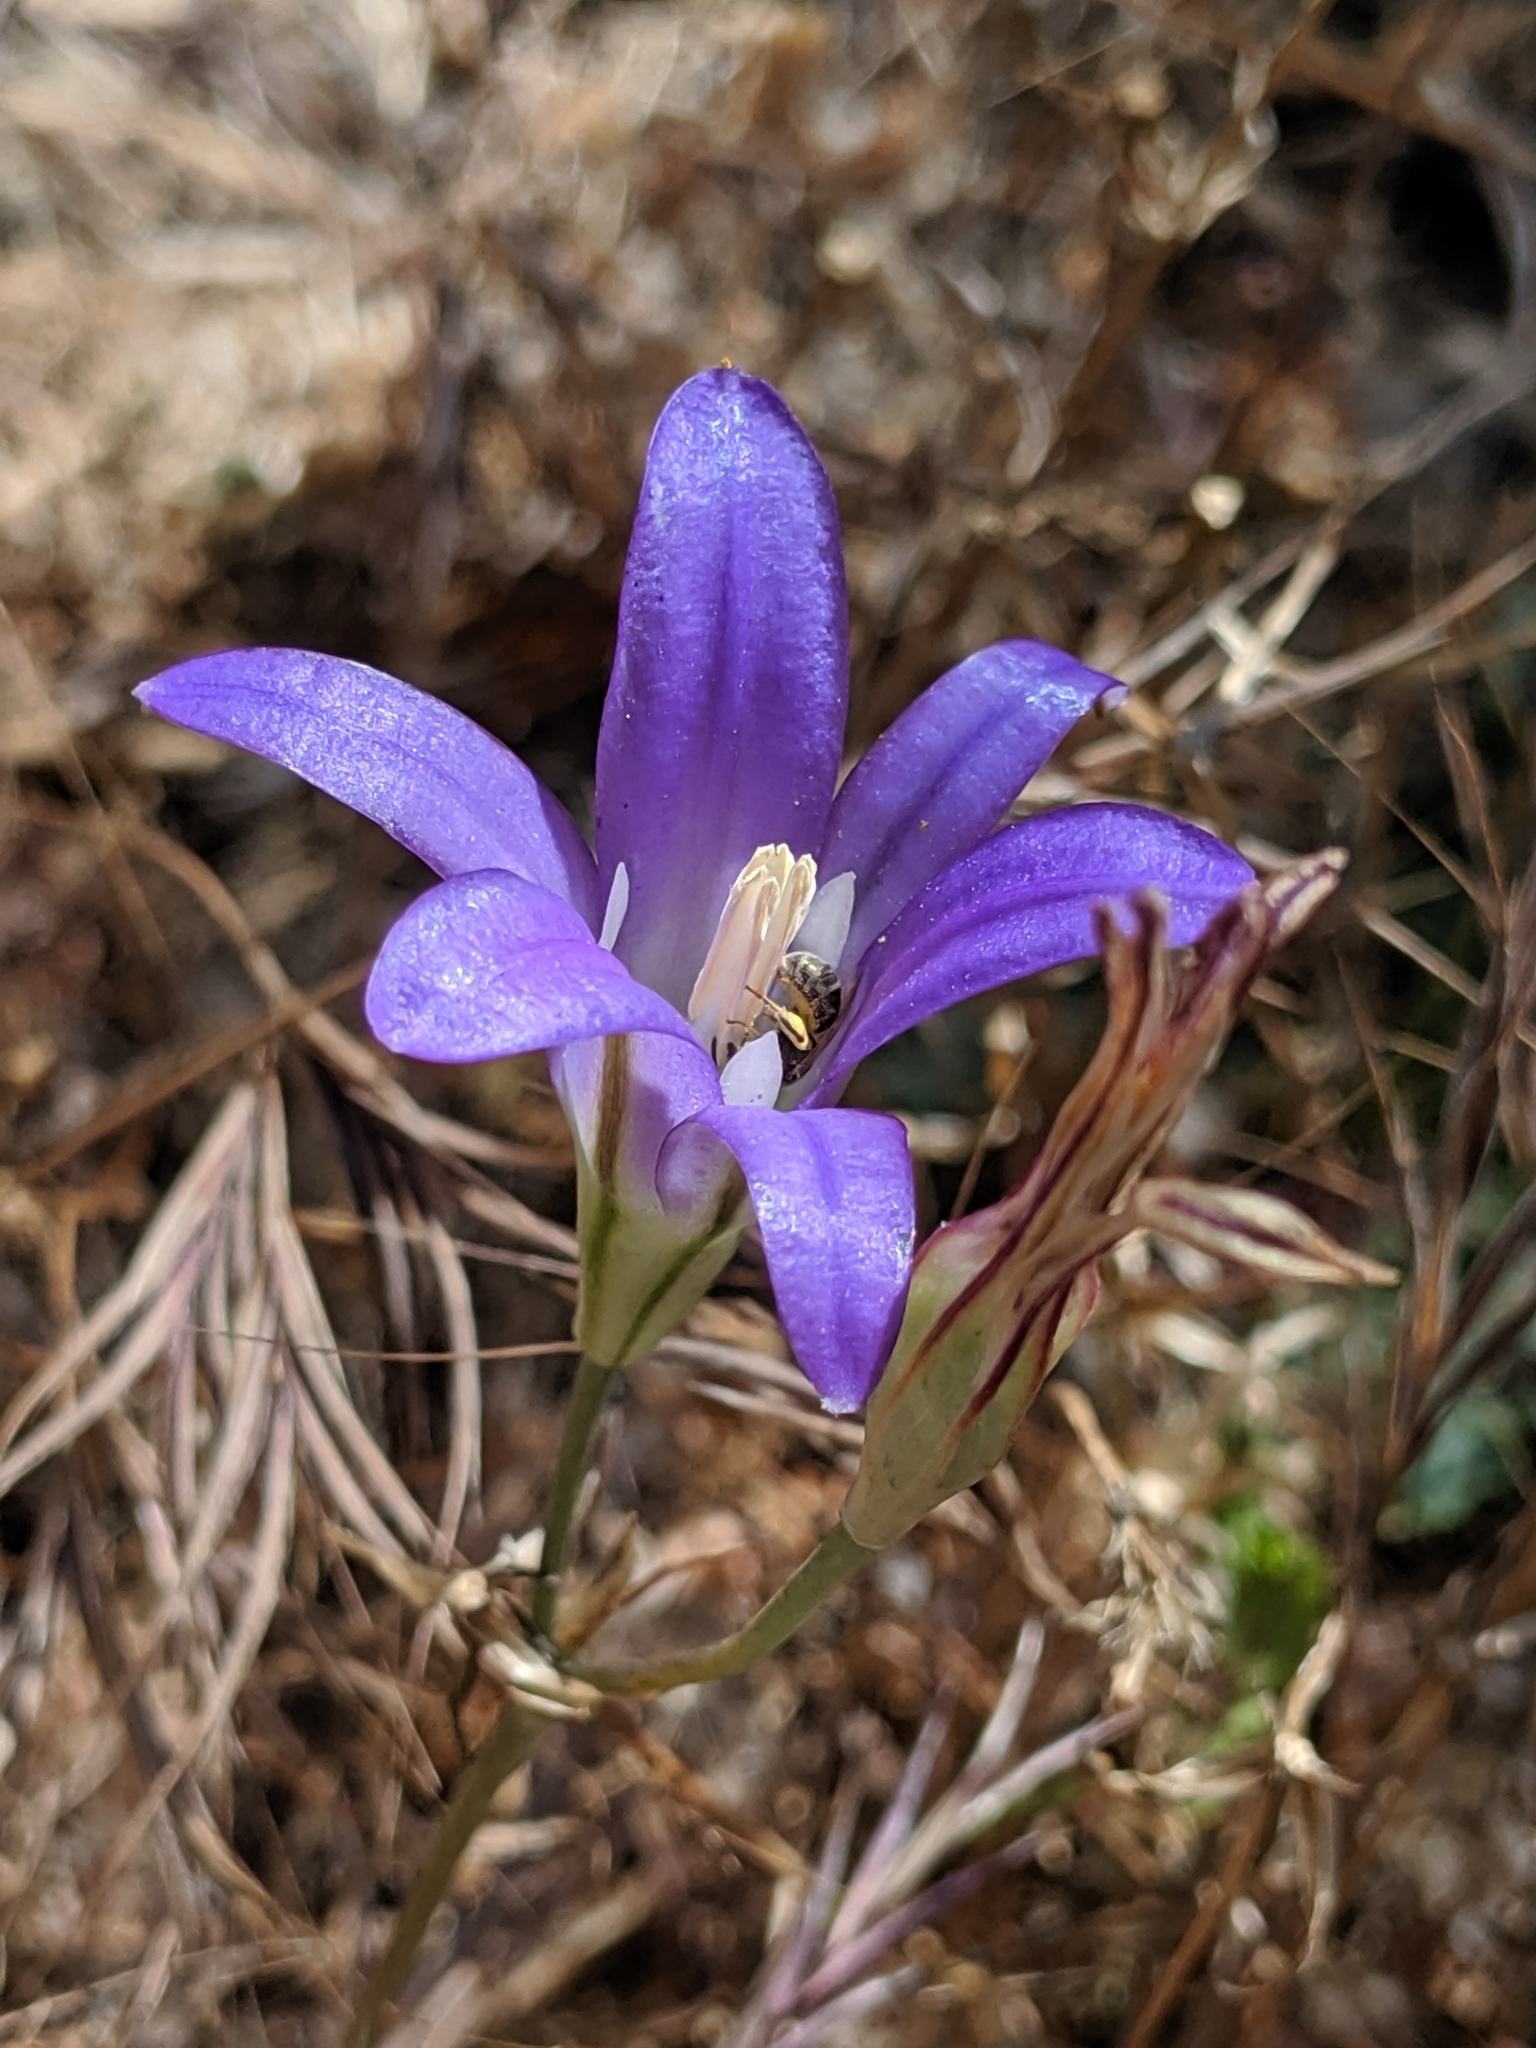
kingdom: Plantae
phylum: Tracheophyta
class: Liliopsida
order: Asparagales
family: Asparagaceae
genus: Brodiaea
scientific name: Brodiaea elegans
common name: Elegant cluster-lily
